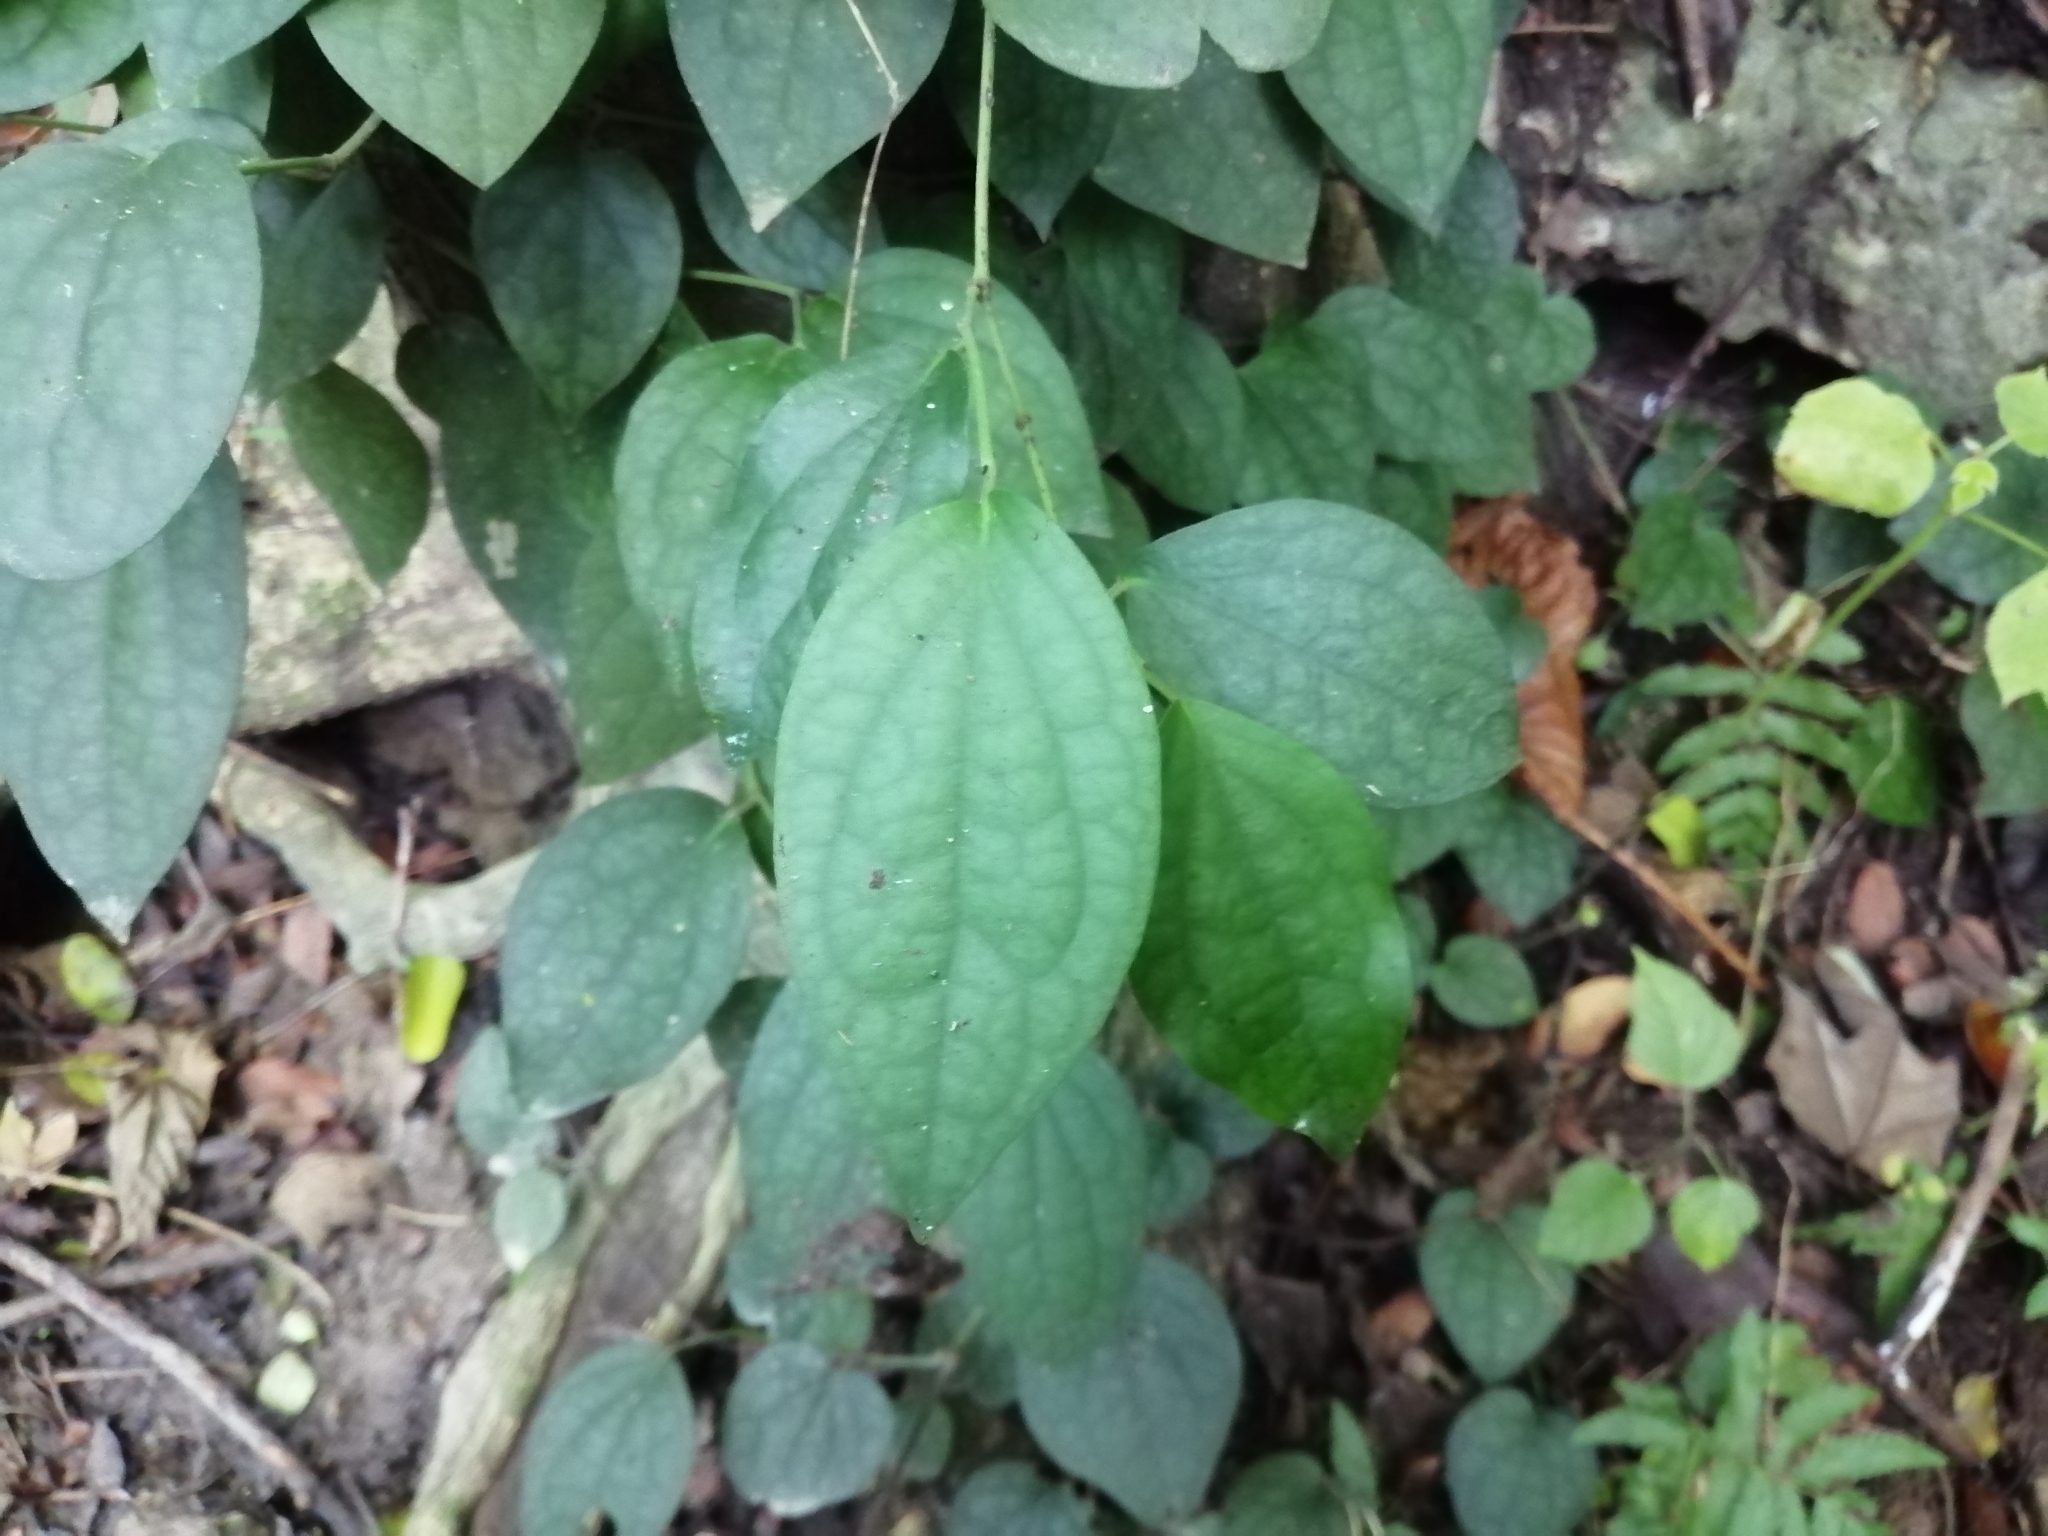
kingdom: Plantae
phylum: Tracheophyta
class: Magnoliopsida
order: Piperales
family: Piperaceae
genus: Piper
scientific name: Piper kadsura
